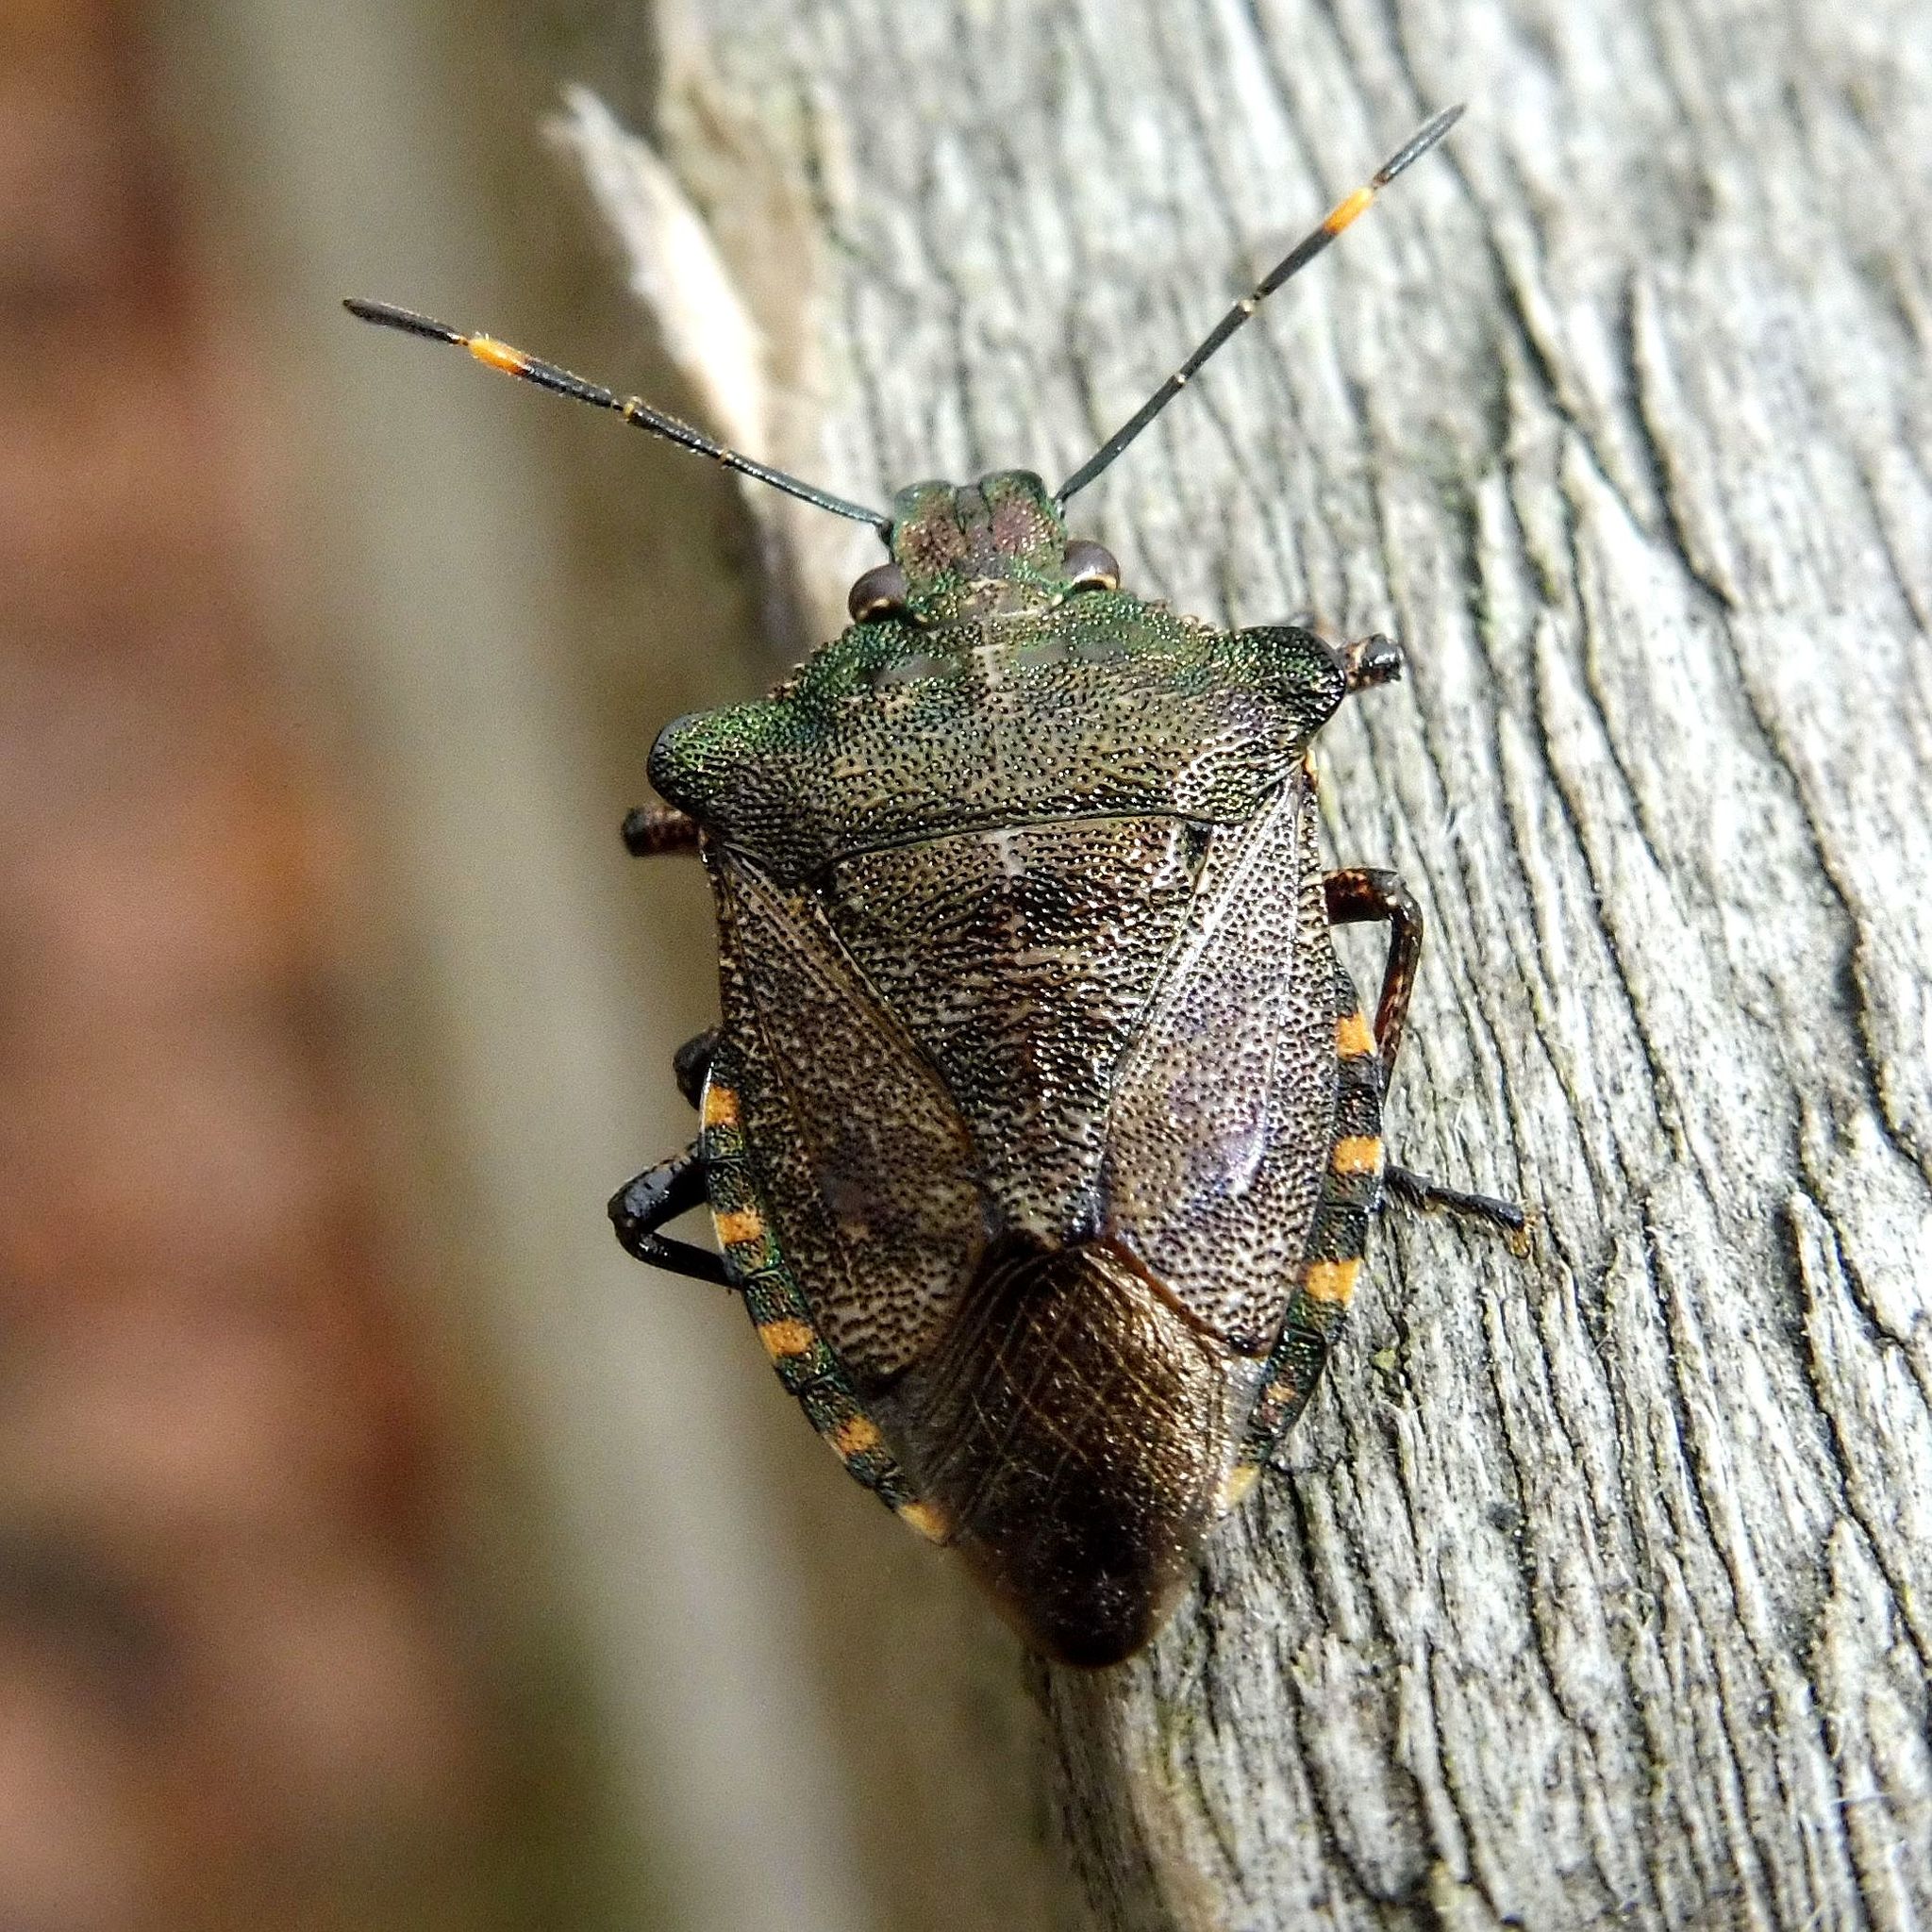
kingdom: Animalia
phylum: Arthropoda
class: Insecta
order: Hemiptera
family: Pentatomidae
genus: Troilus
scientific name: Troilus luridus
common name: Bronze shieldbug
